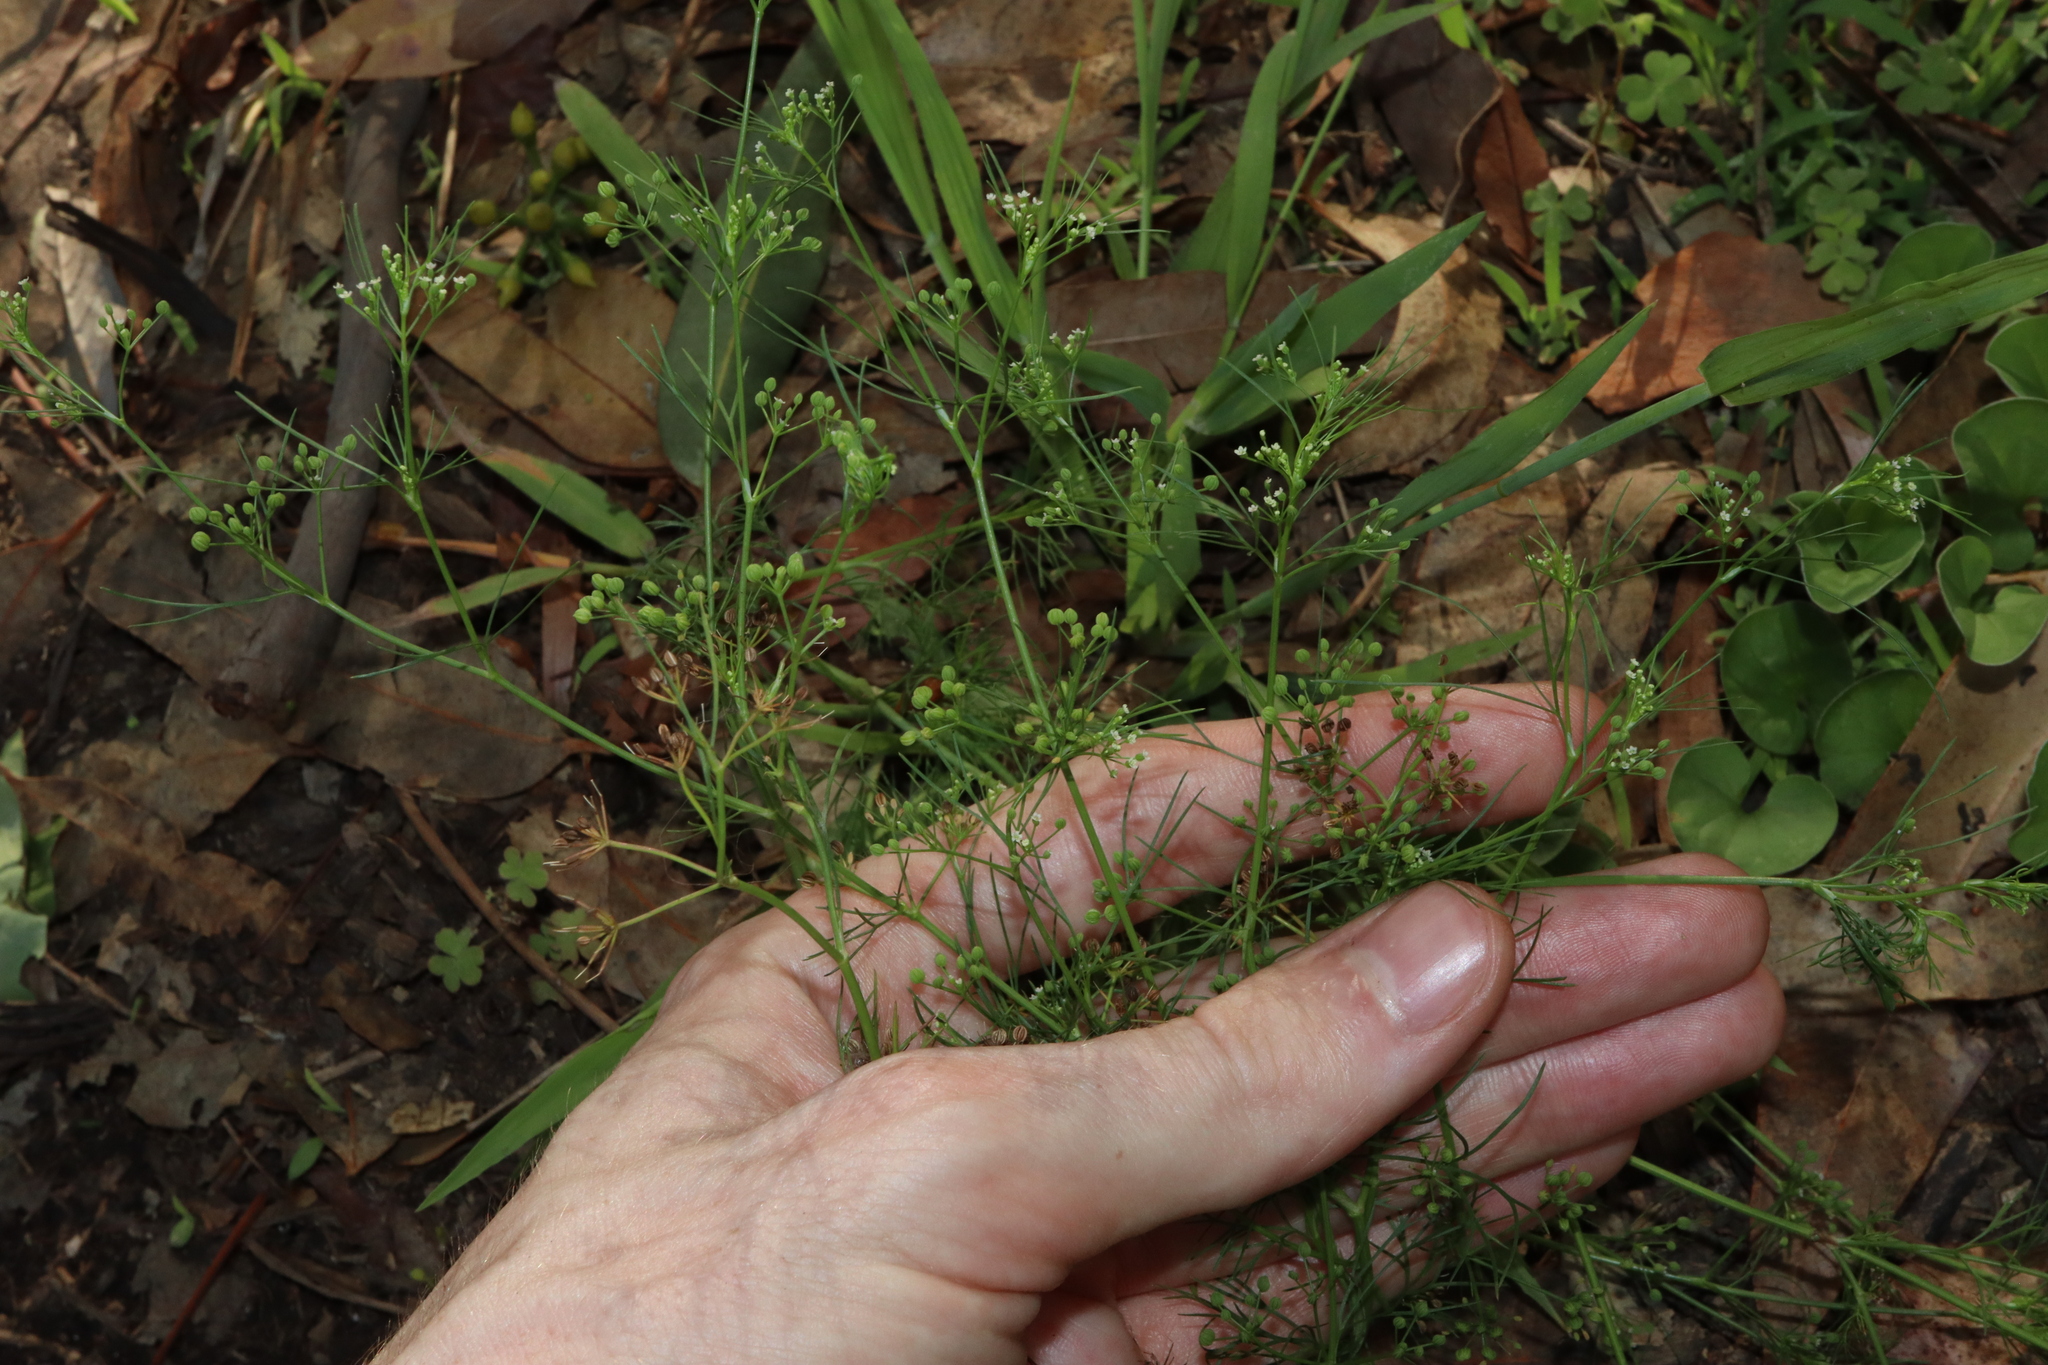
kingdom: Plantae
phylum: Tracheophyta
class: Magnoliopsida
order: Apiales
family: Apiaceae
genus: Cyclospermum
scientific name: Cyclospermum leptophyllum
